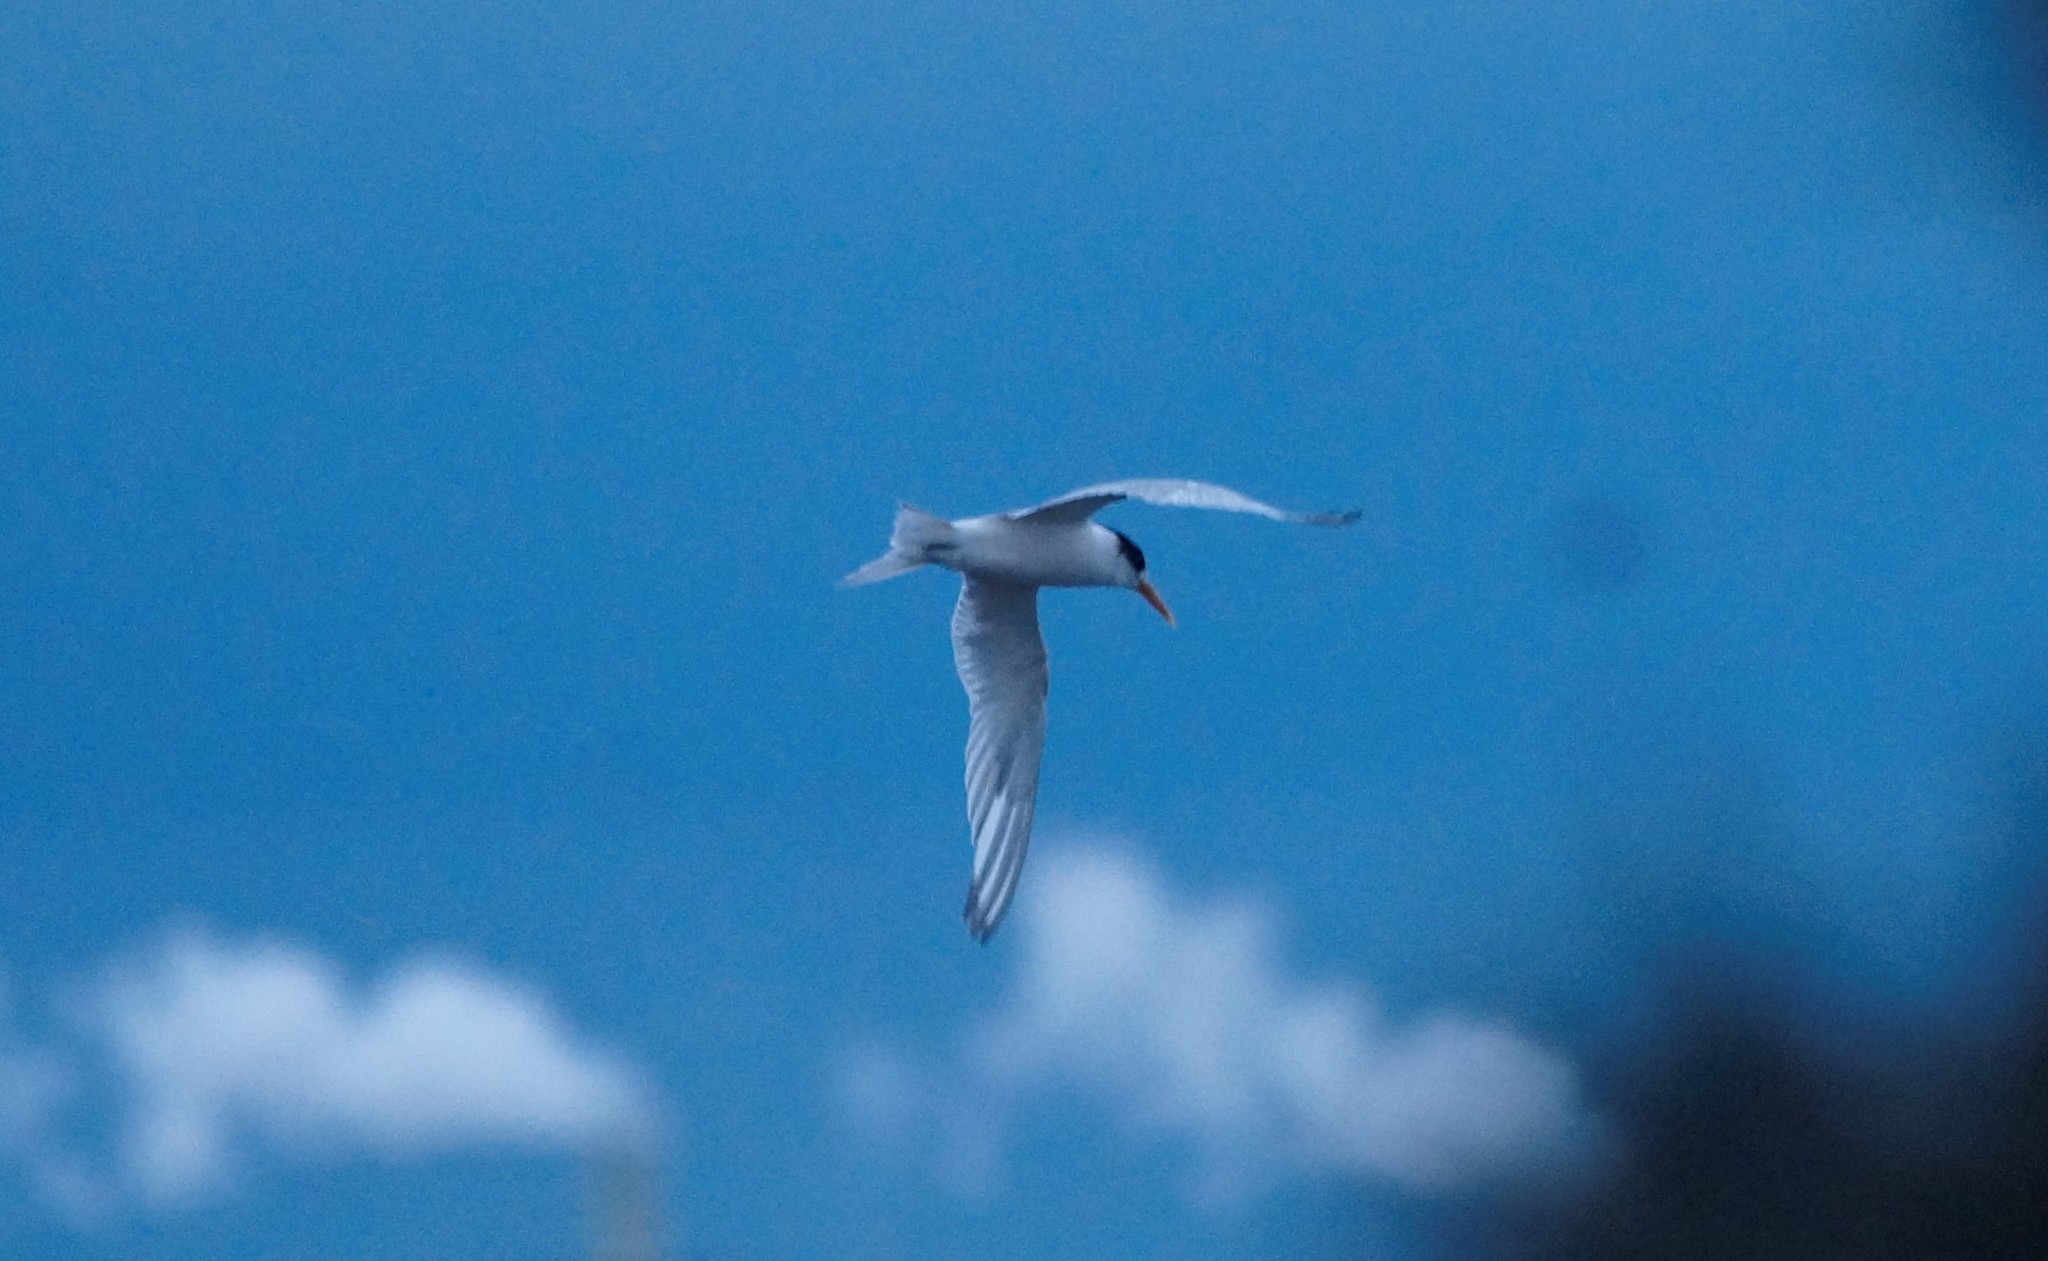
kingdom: Animalia
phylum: Chordata
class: Aves
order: Charadriiformes
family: Laridae
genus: Thalasseus
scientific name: Thalasseus bergii
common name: Greater crested tern
